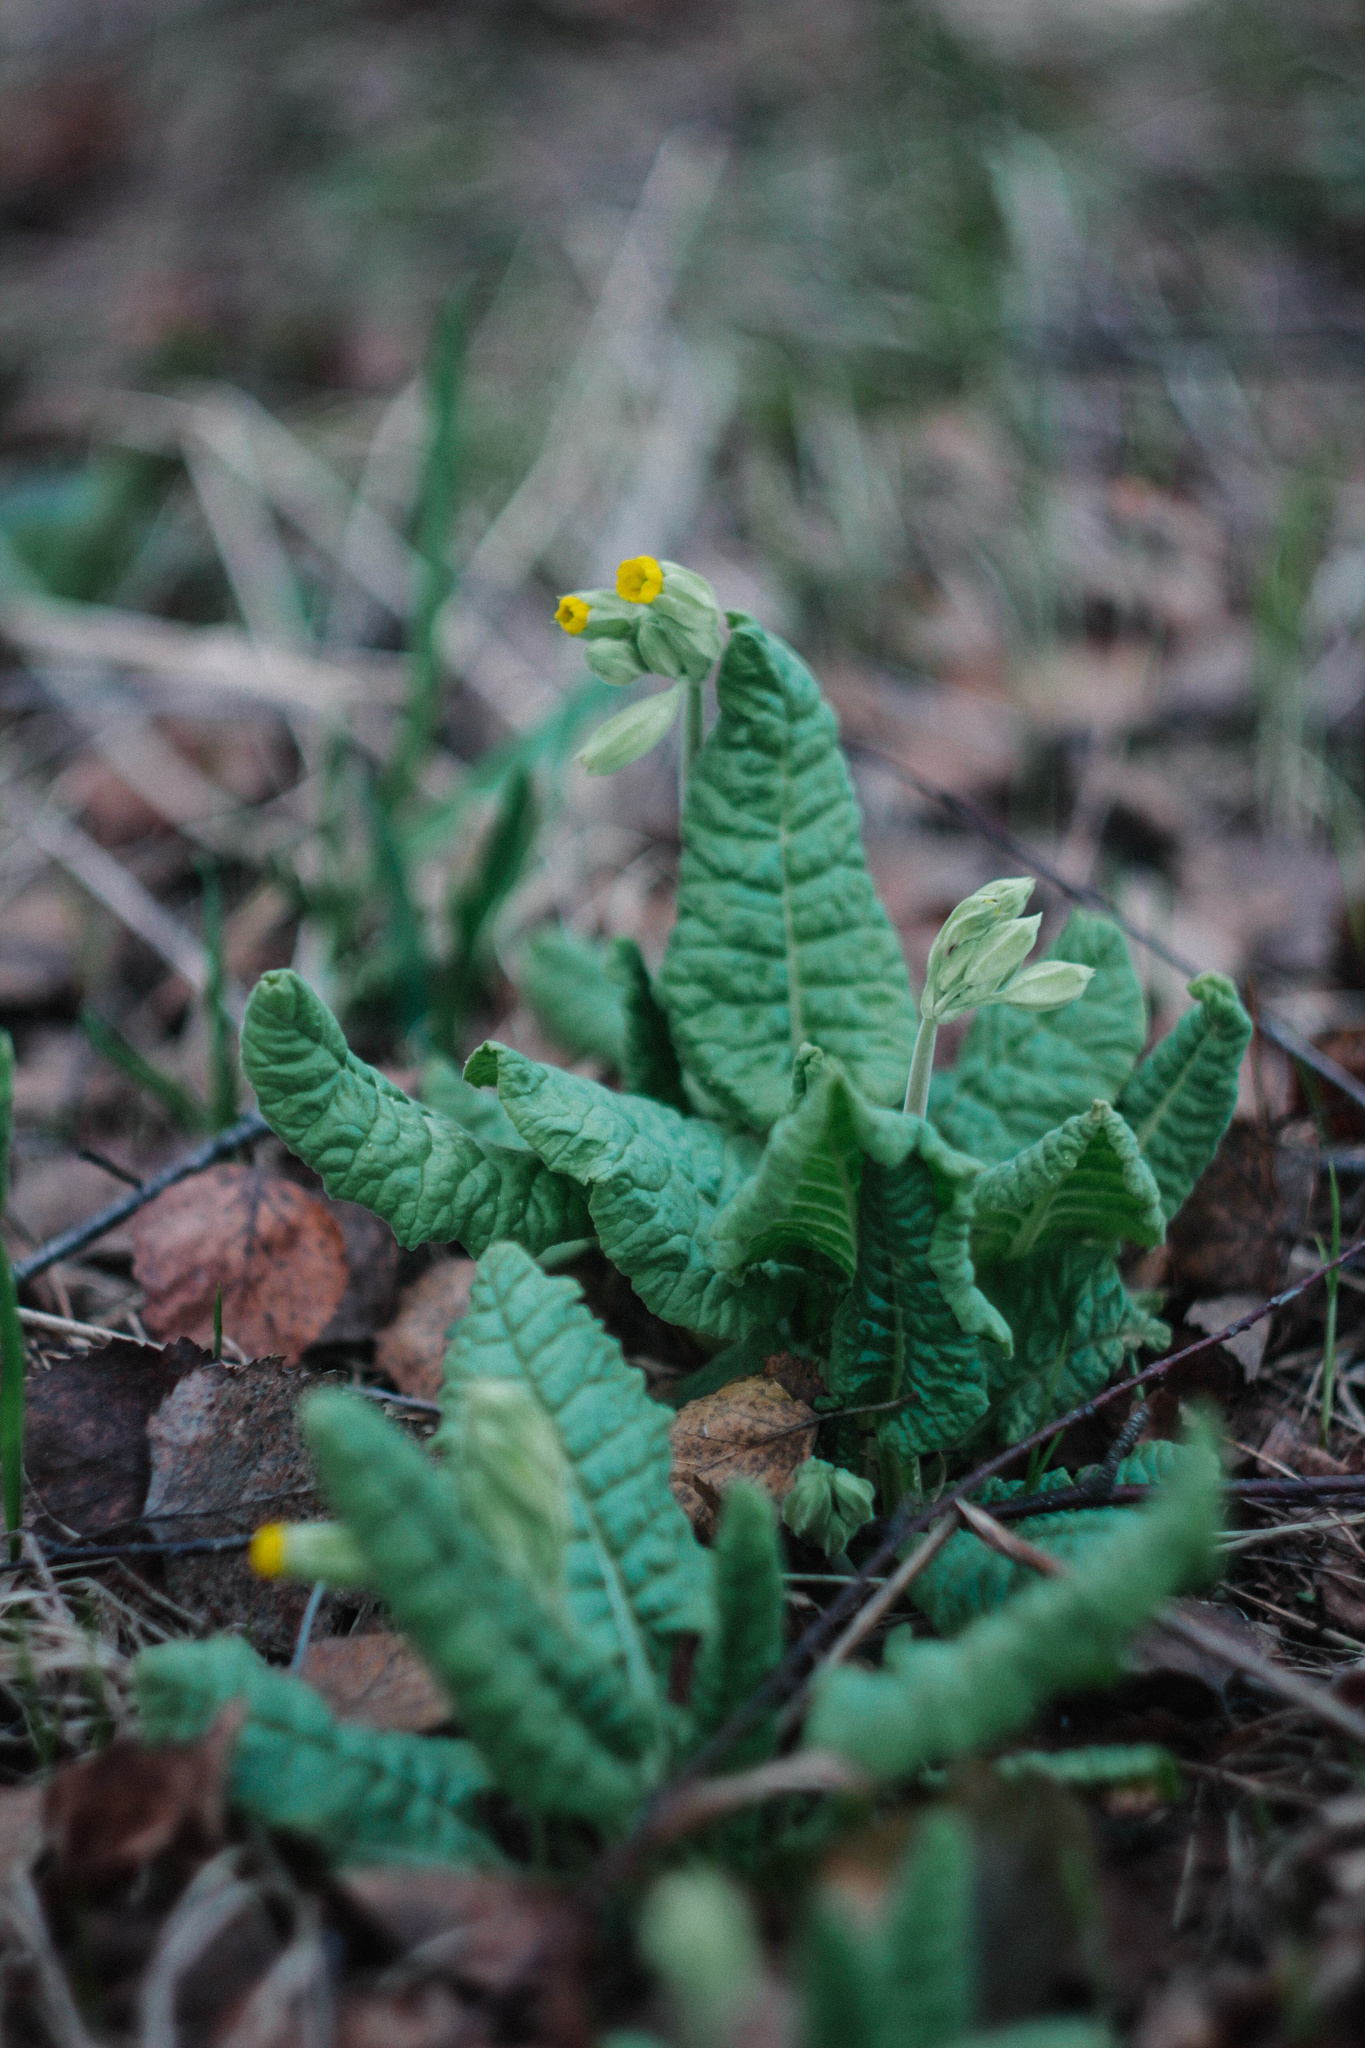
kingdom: Plantae
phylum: Tracheophyta
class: Magnoliopsida
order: Ericales
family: Primulaceae
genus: Primula
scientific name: Primula veris
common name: Cowslip
